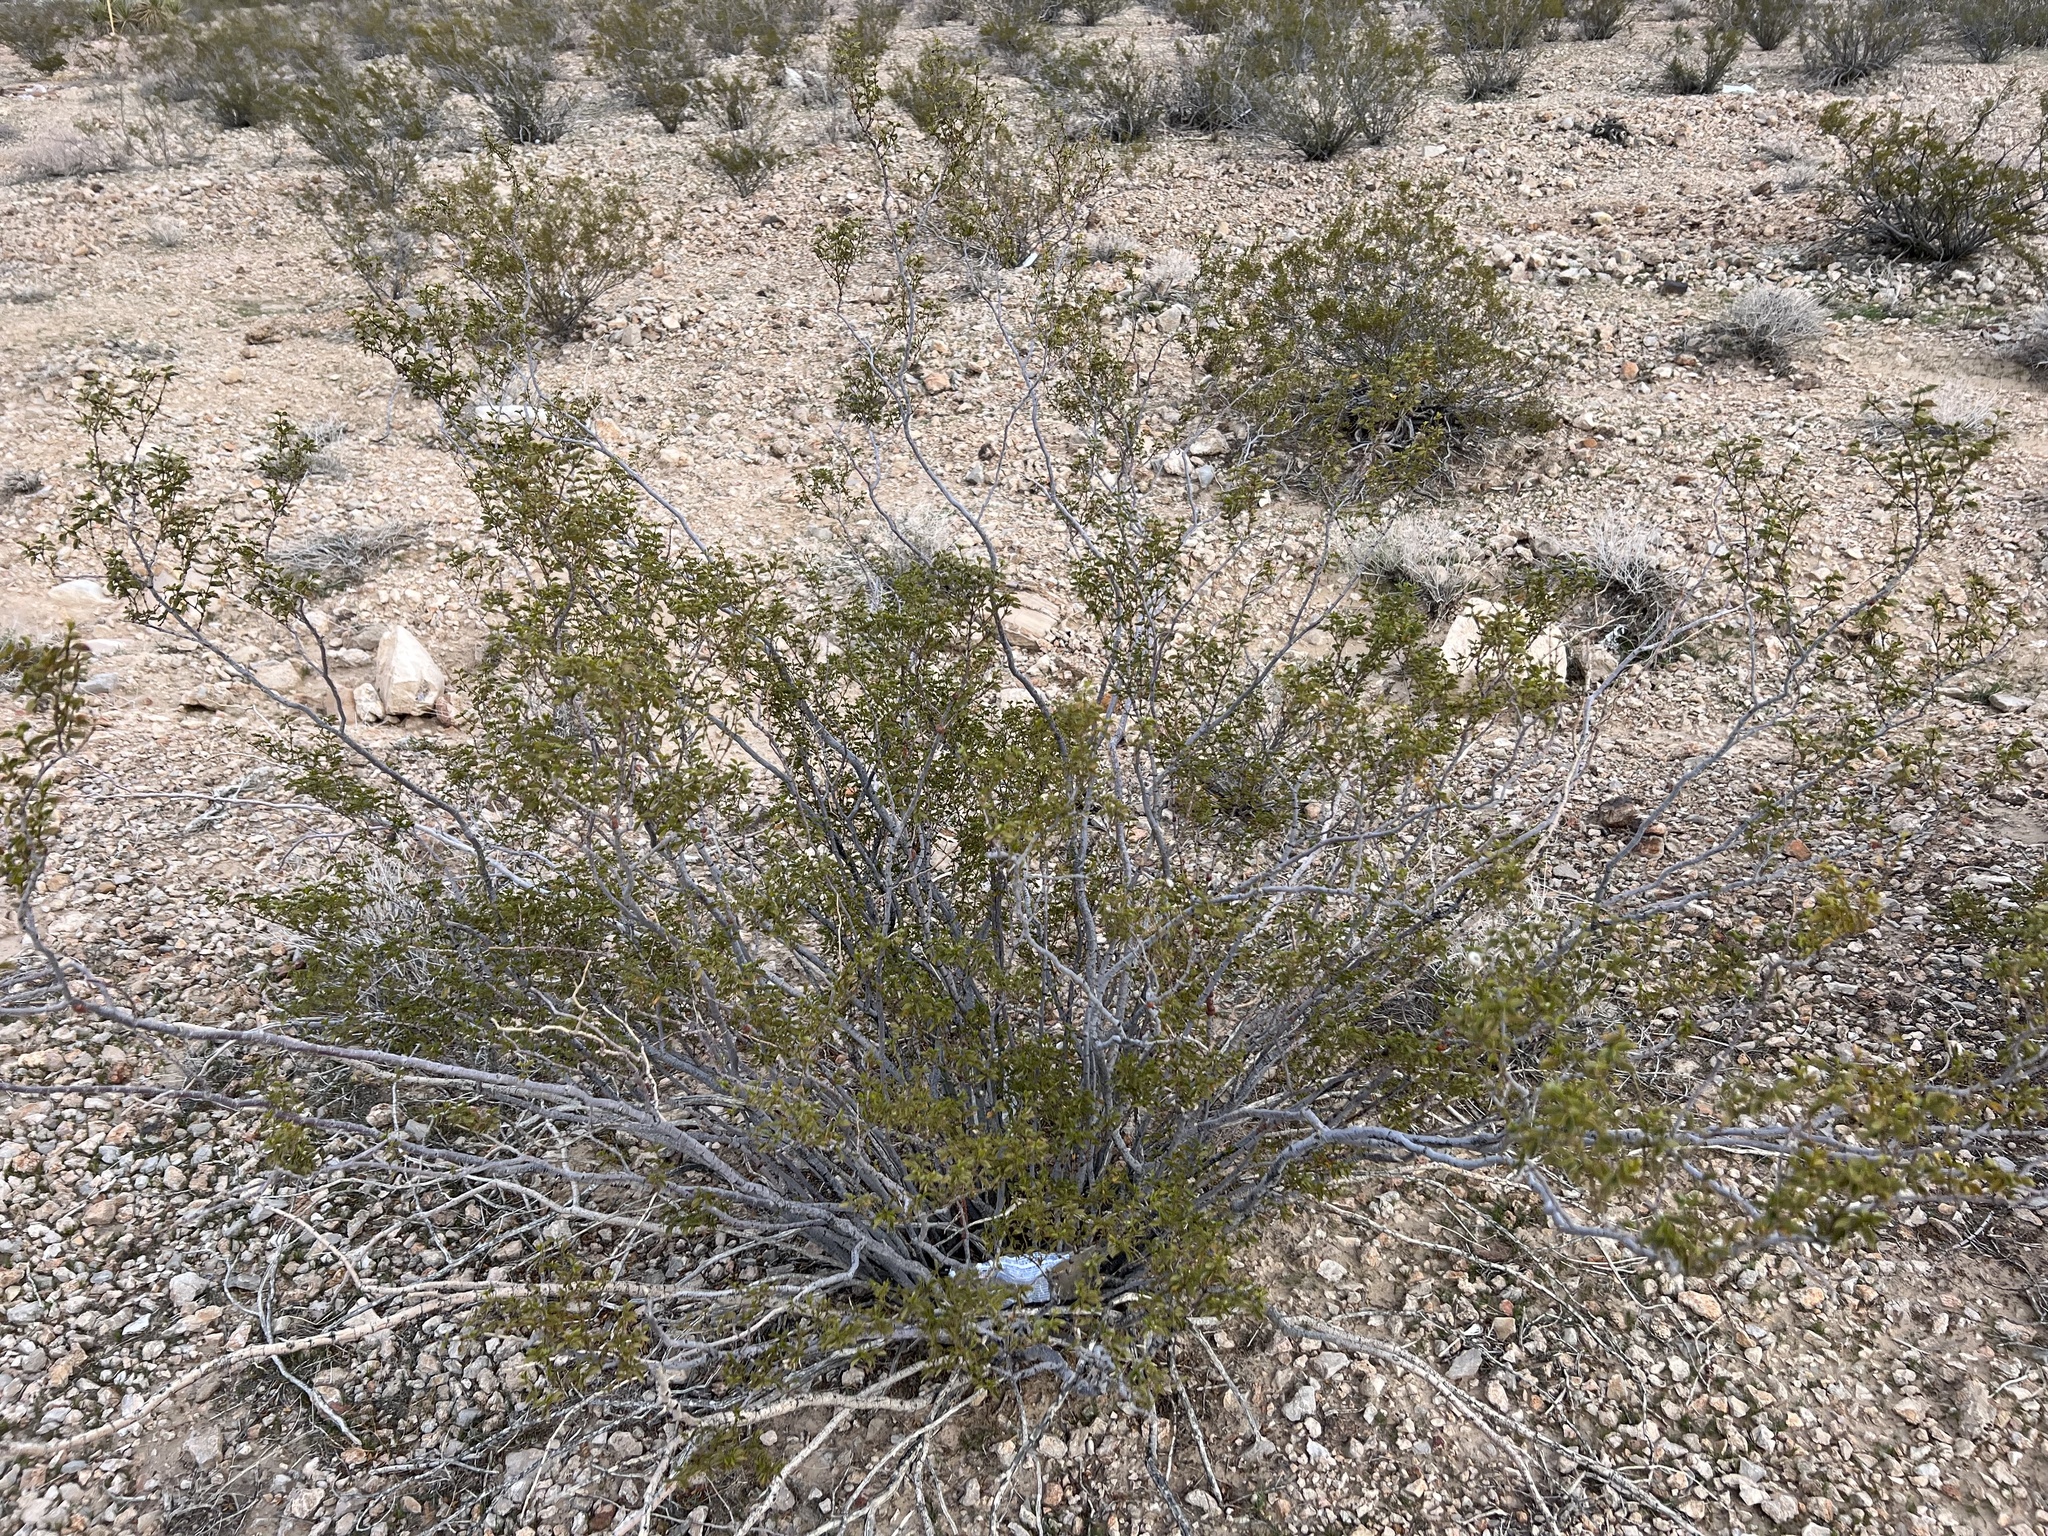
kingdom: Plantae
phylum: Tracheophyta
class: Magnoliopsida
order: Zygophyllales
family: Zygophyllaceae
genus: Larrea
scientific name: Larrea tridentata
